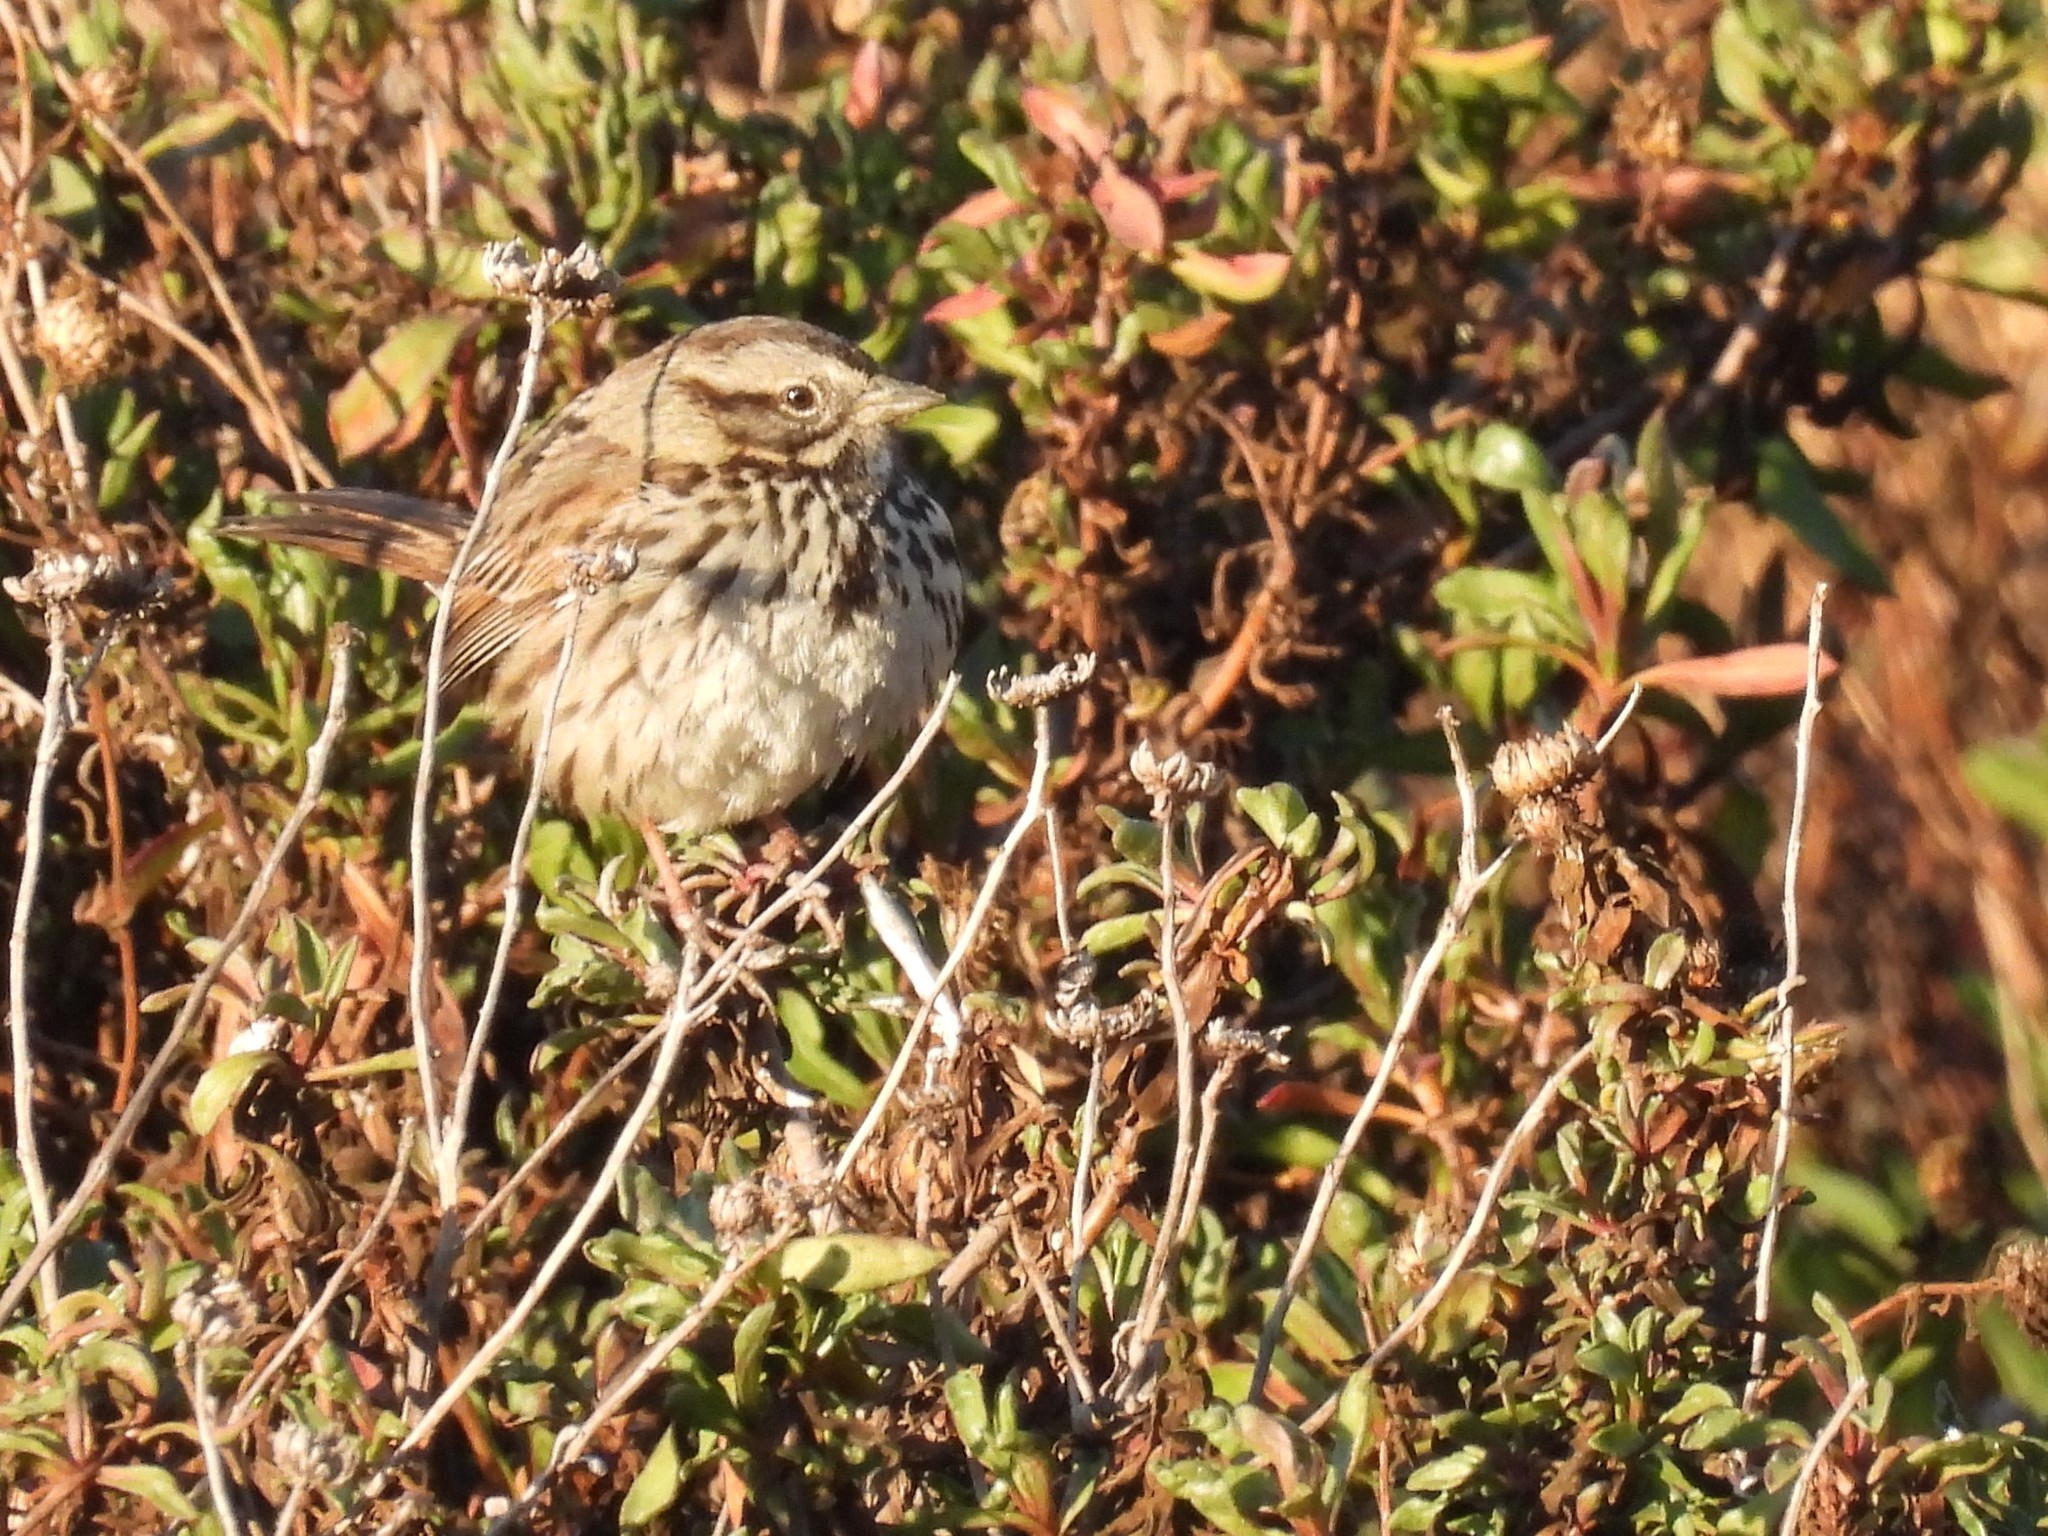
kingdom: Animalia
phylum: Chordata
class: Aves
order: Passeriformes
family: Passerellidae
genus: Melospiza
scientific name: Melospiza melodia
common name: Song sparrow
